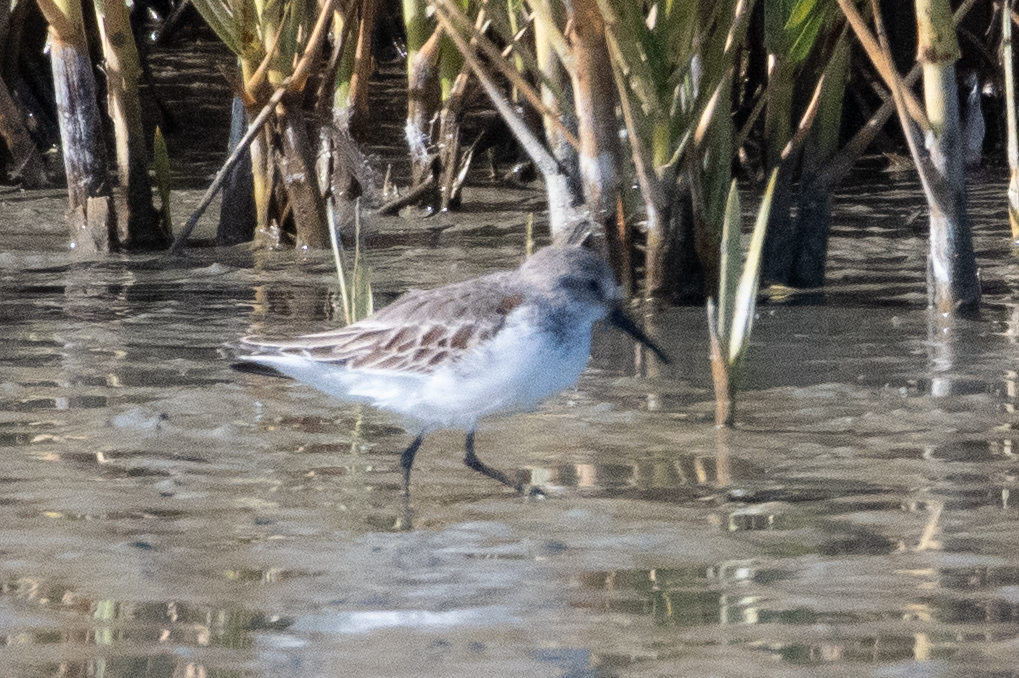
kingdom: Animalia
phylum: Chordata
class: Aves
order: Charadriiformes
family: Scolopacidae
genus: Calidris
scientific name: Calidris mauri
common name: Western sandpiper
